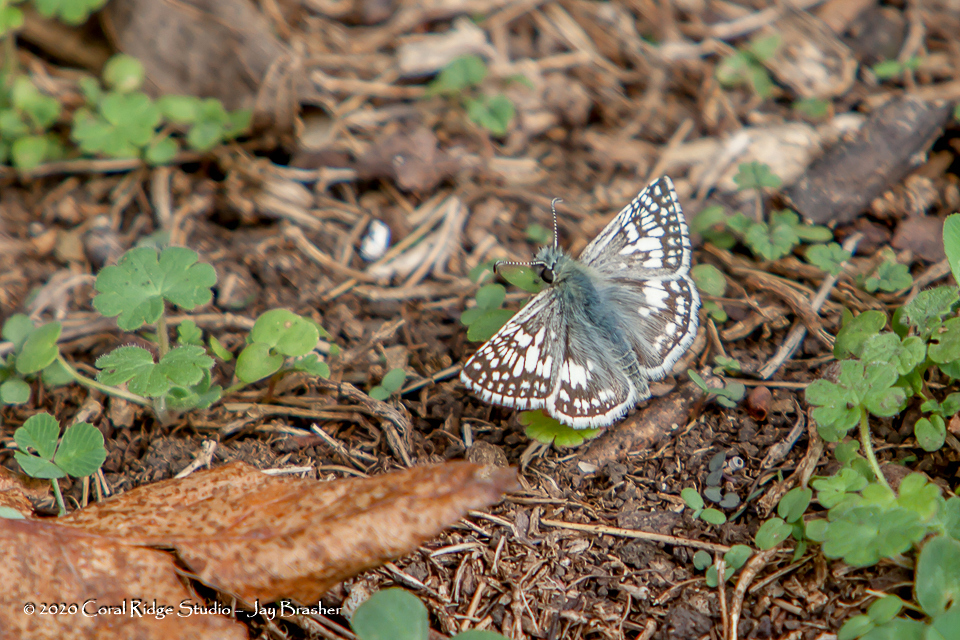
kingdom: Animalia
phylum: Arthropoda
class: Insecta
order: Lepidoptera
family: Hesperiidae
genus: Burnsius
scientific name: Burnsius communis
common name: Common checkered-skipper
